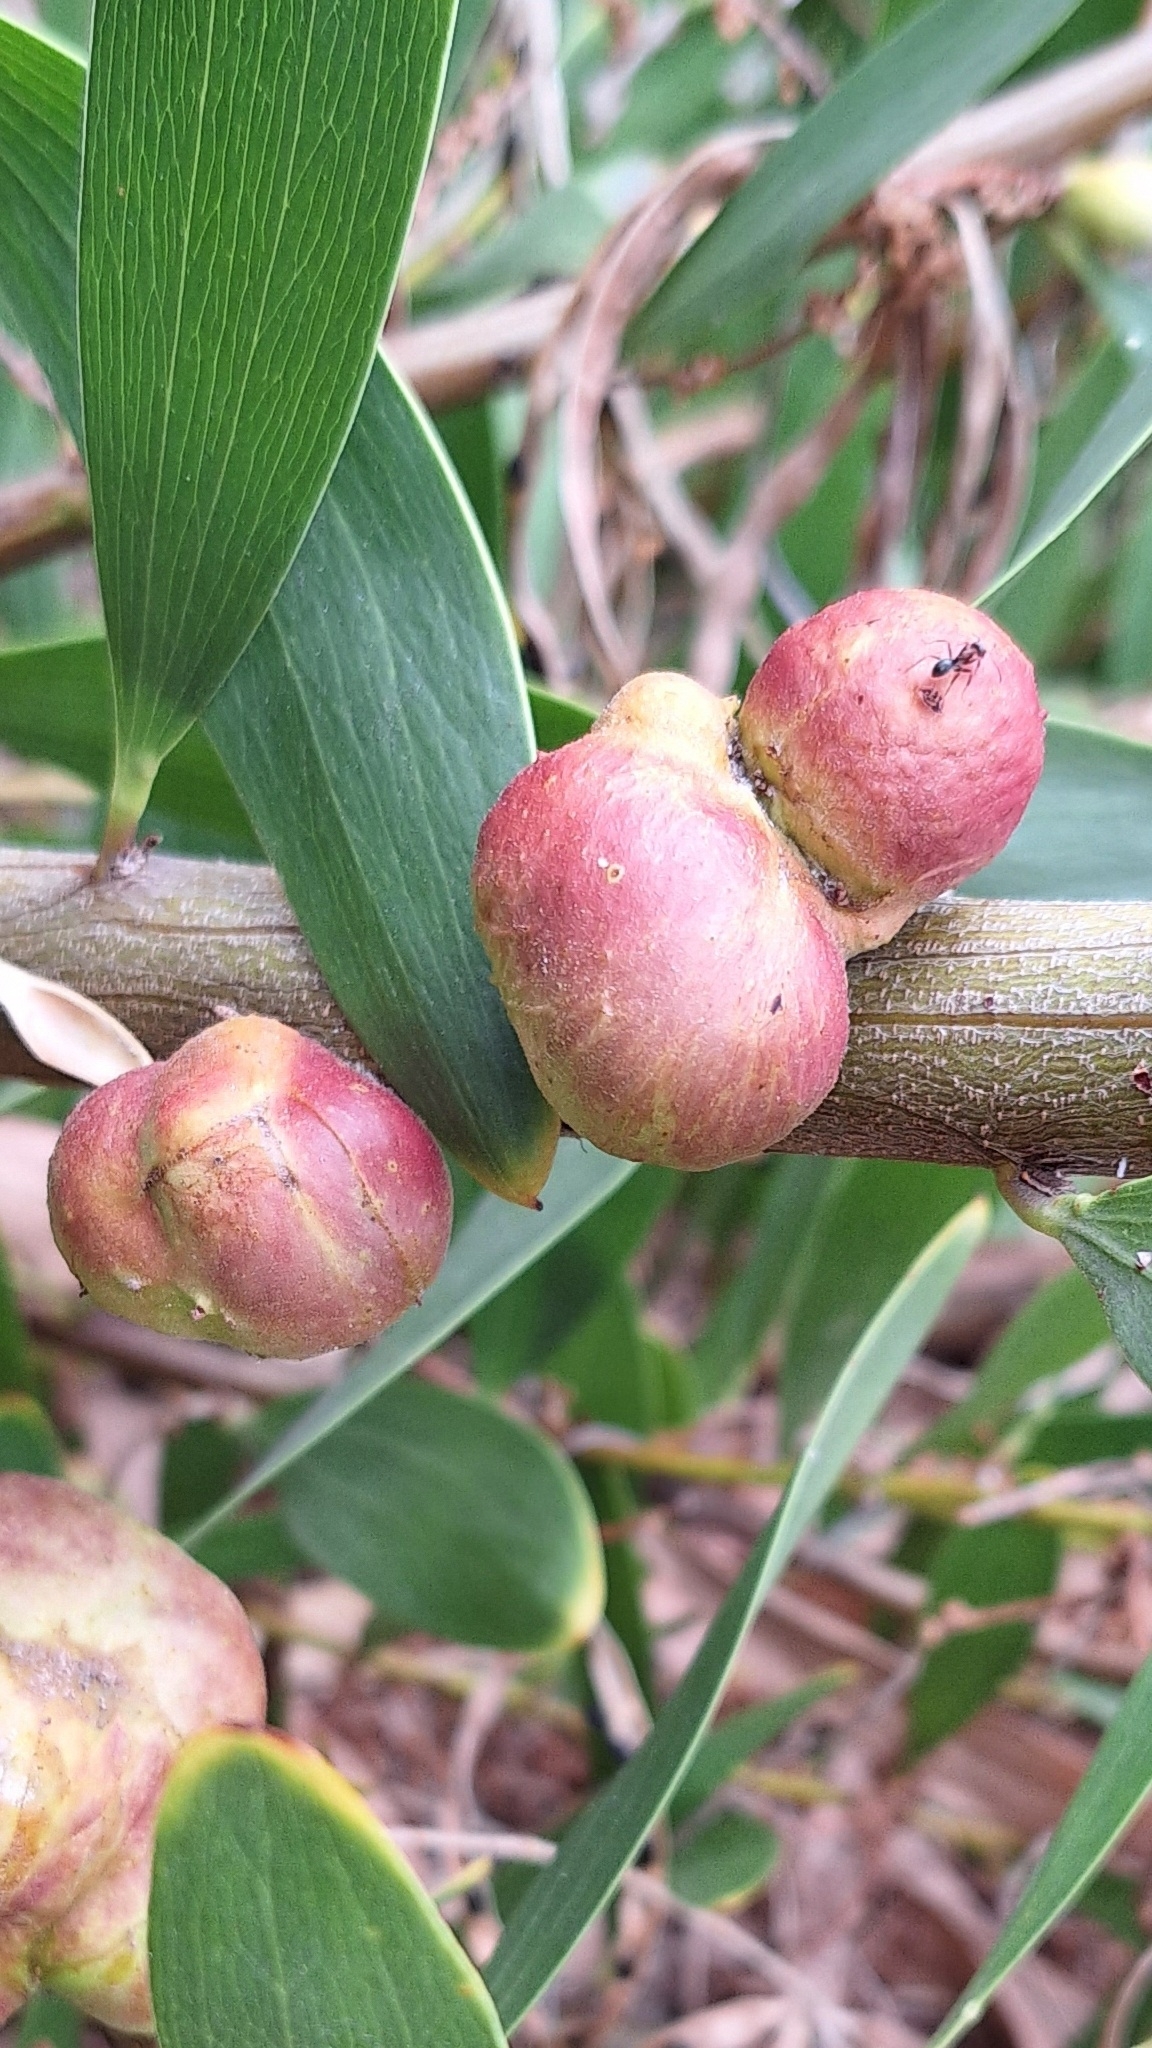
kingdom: Animalia
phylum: Arthropoda
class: Insecta
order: Hymenoptera
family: Pteromalidae
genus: Trichilogaster
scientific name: Trichilogaster acaciaelongifoliae
